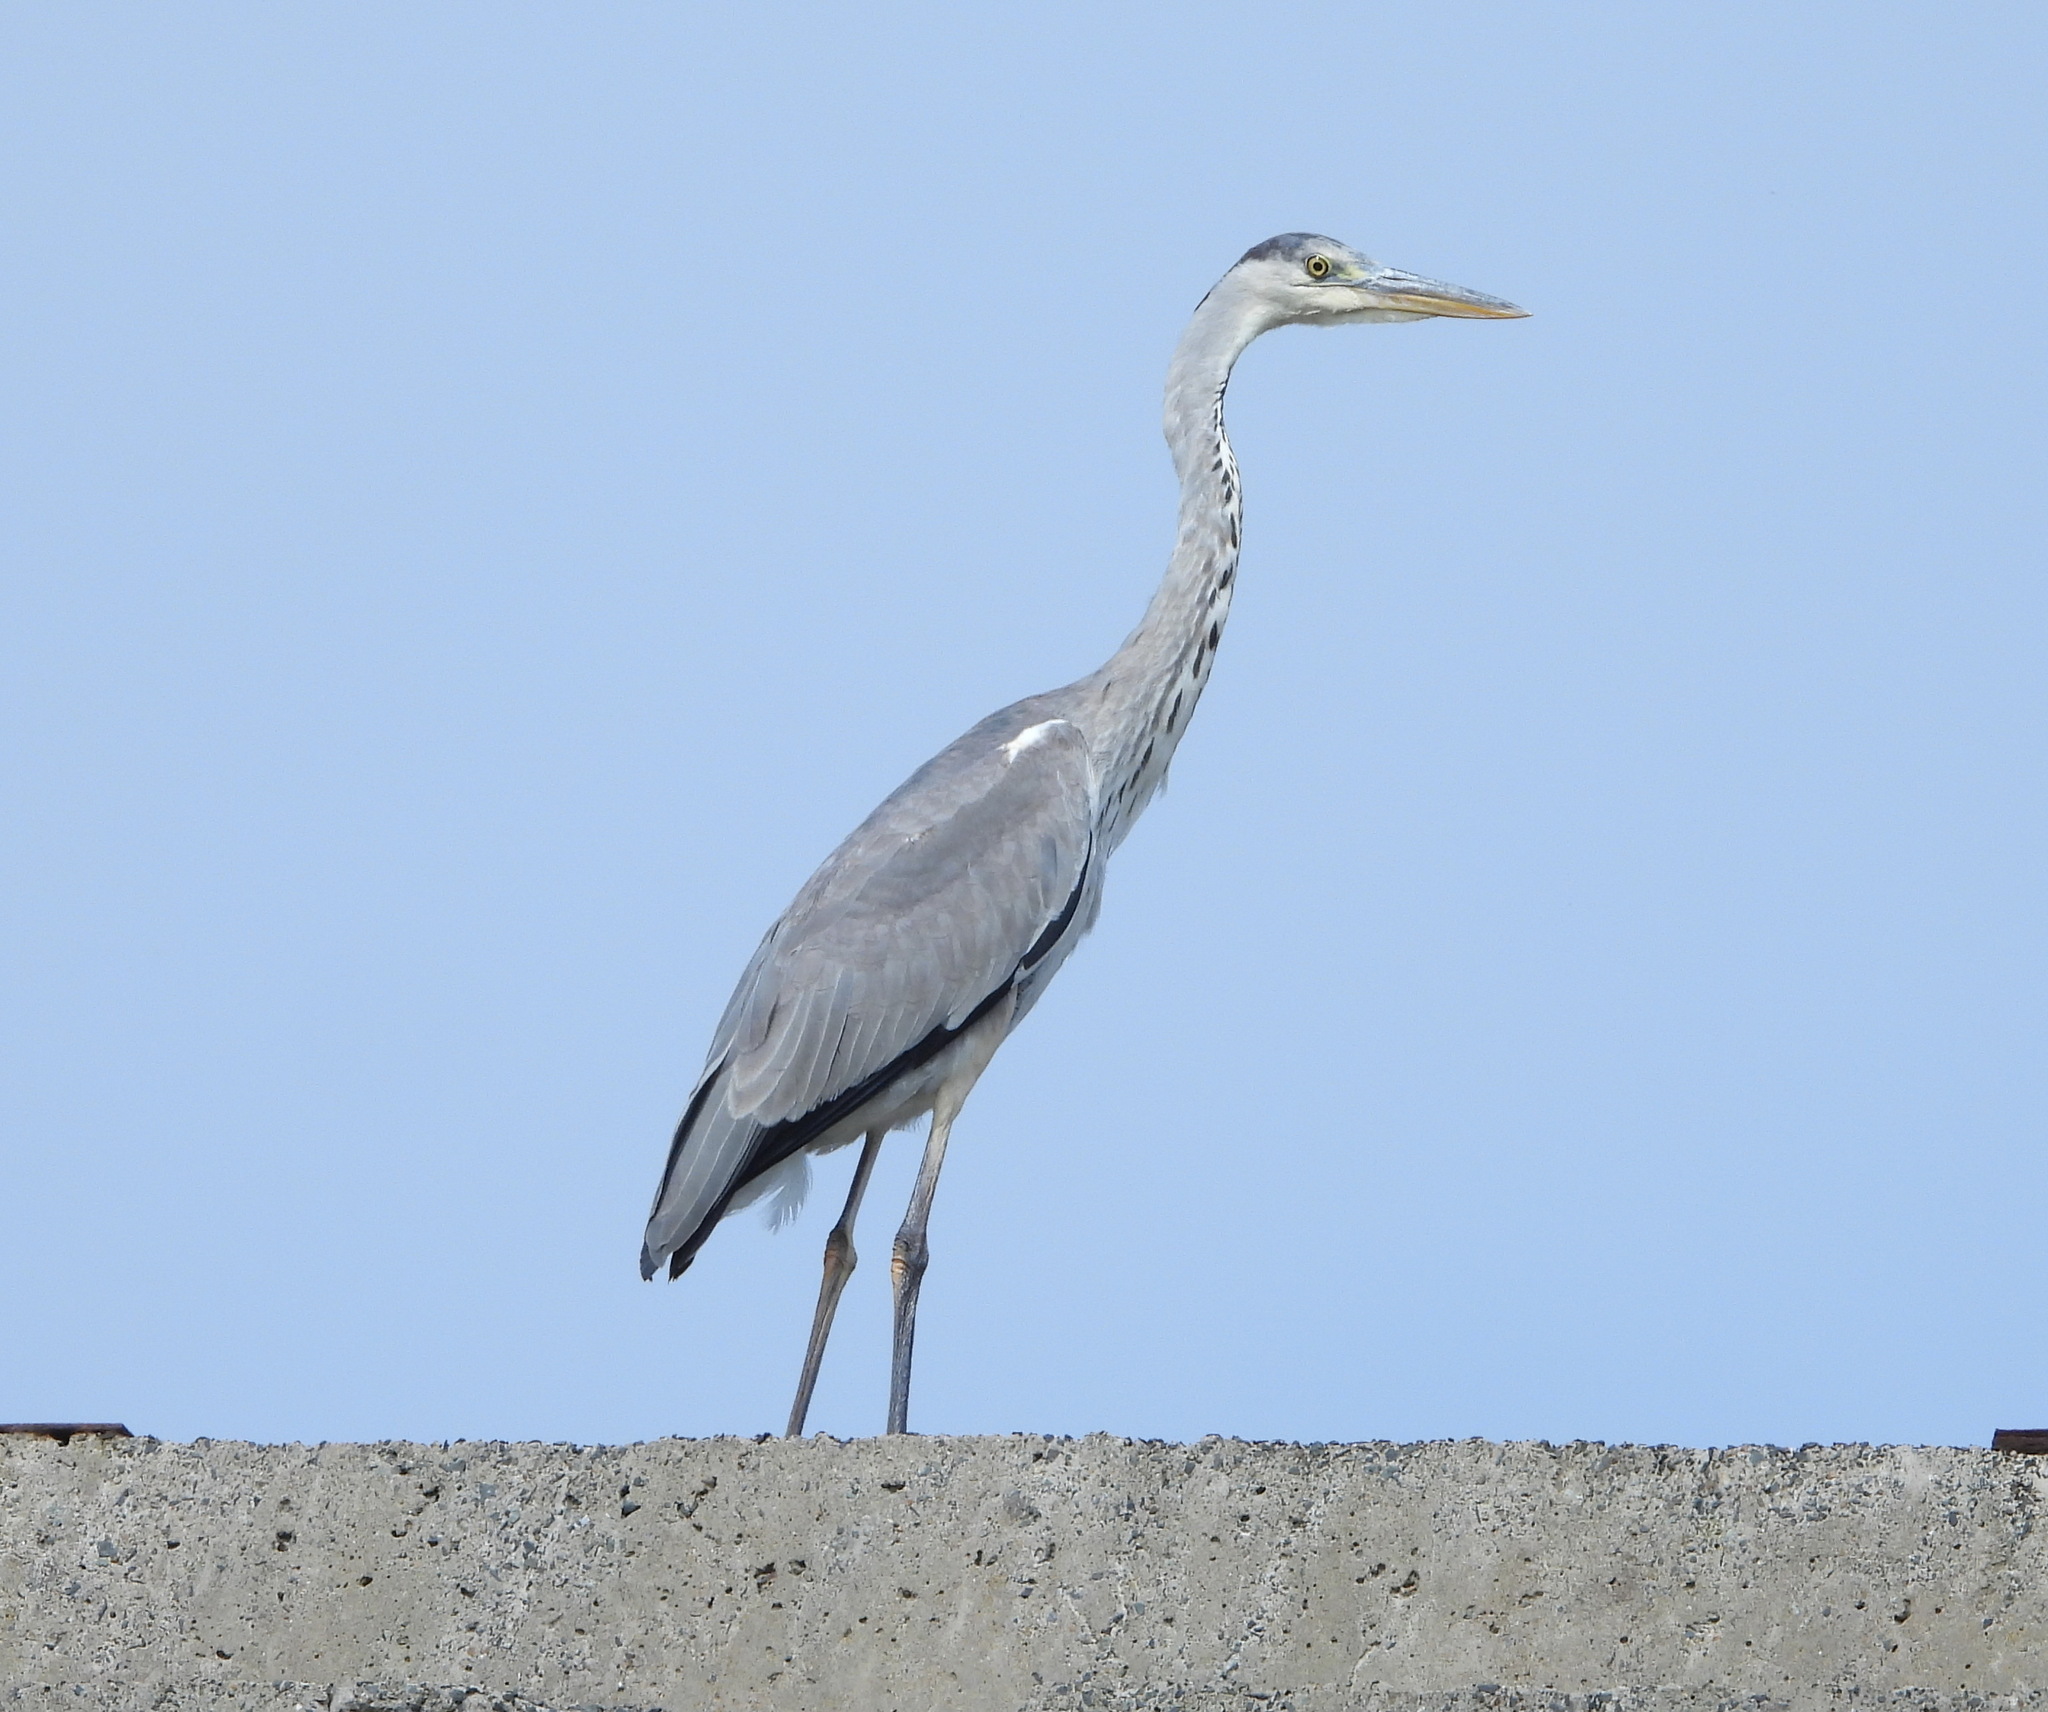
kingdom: Animalia
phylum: Chordata
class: Aves
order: Pelecaniformes
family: Ardeidae
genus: Ardea
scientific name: Ardea cinerea
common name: Grey heron
